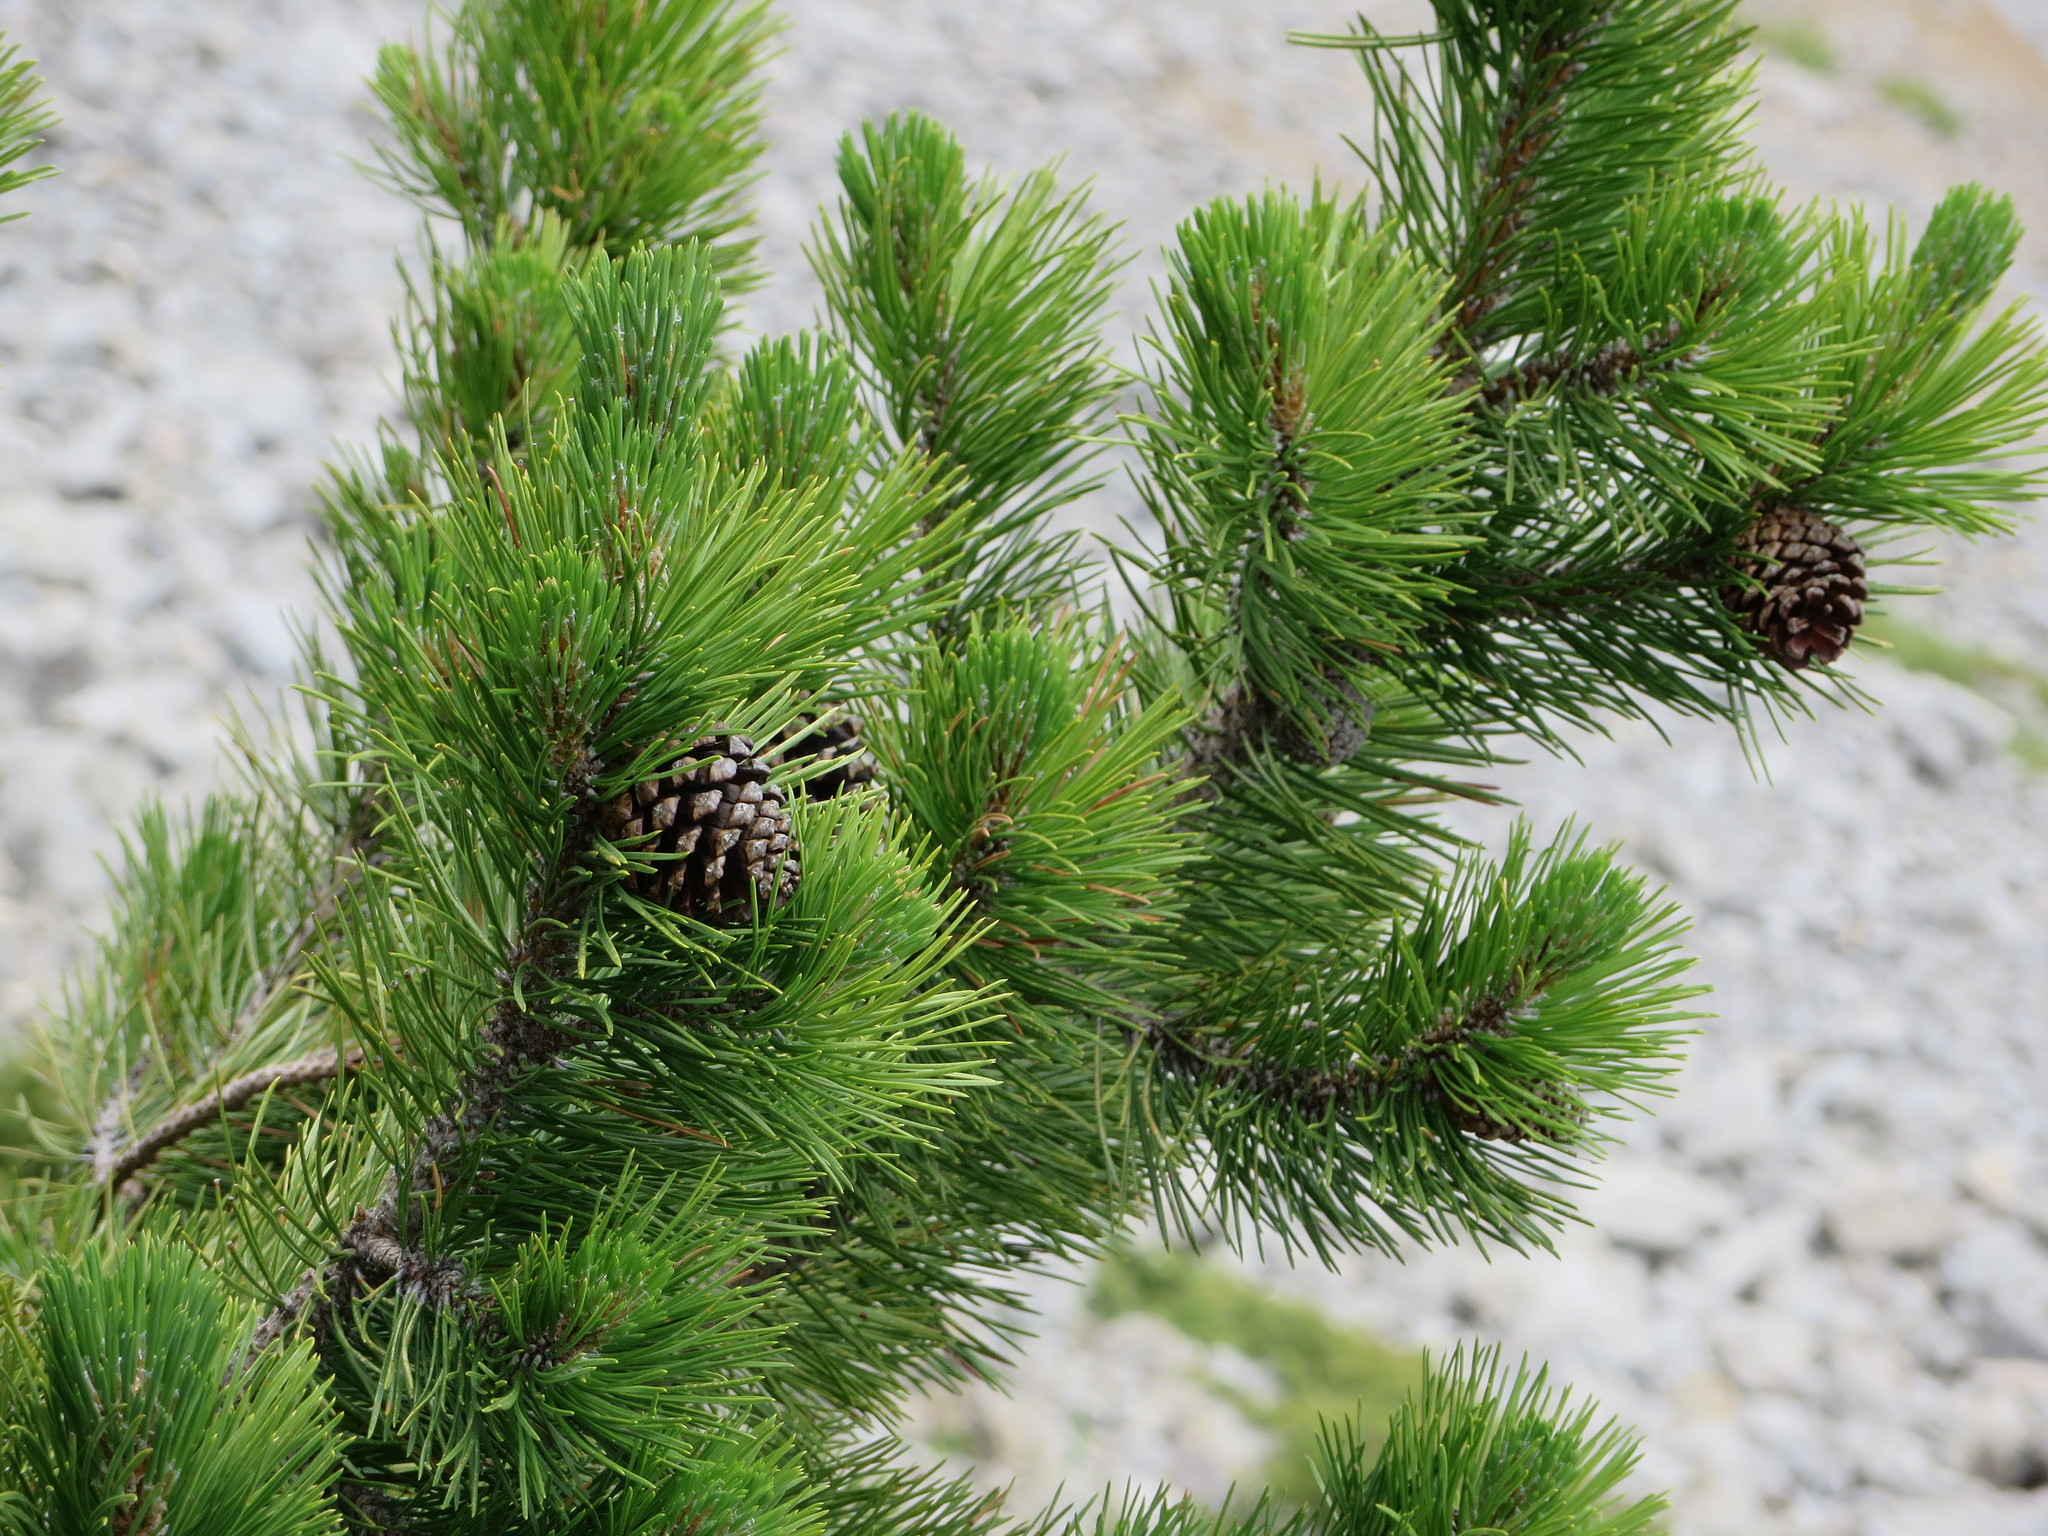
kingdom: Plantae
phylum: Tracheophyta
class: Pinopsida
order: Pinales
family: Pinaceae
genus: Pinus
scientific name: Pinus uncinata
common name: Mountain pine
